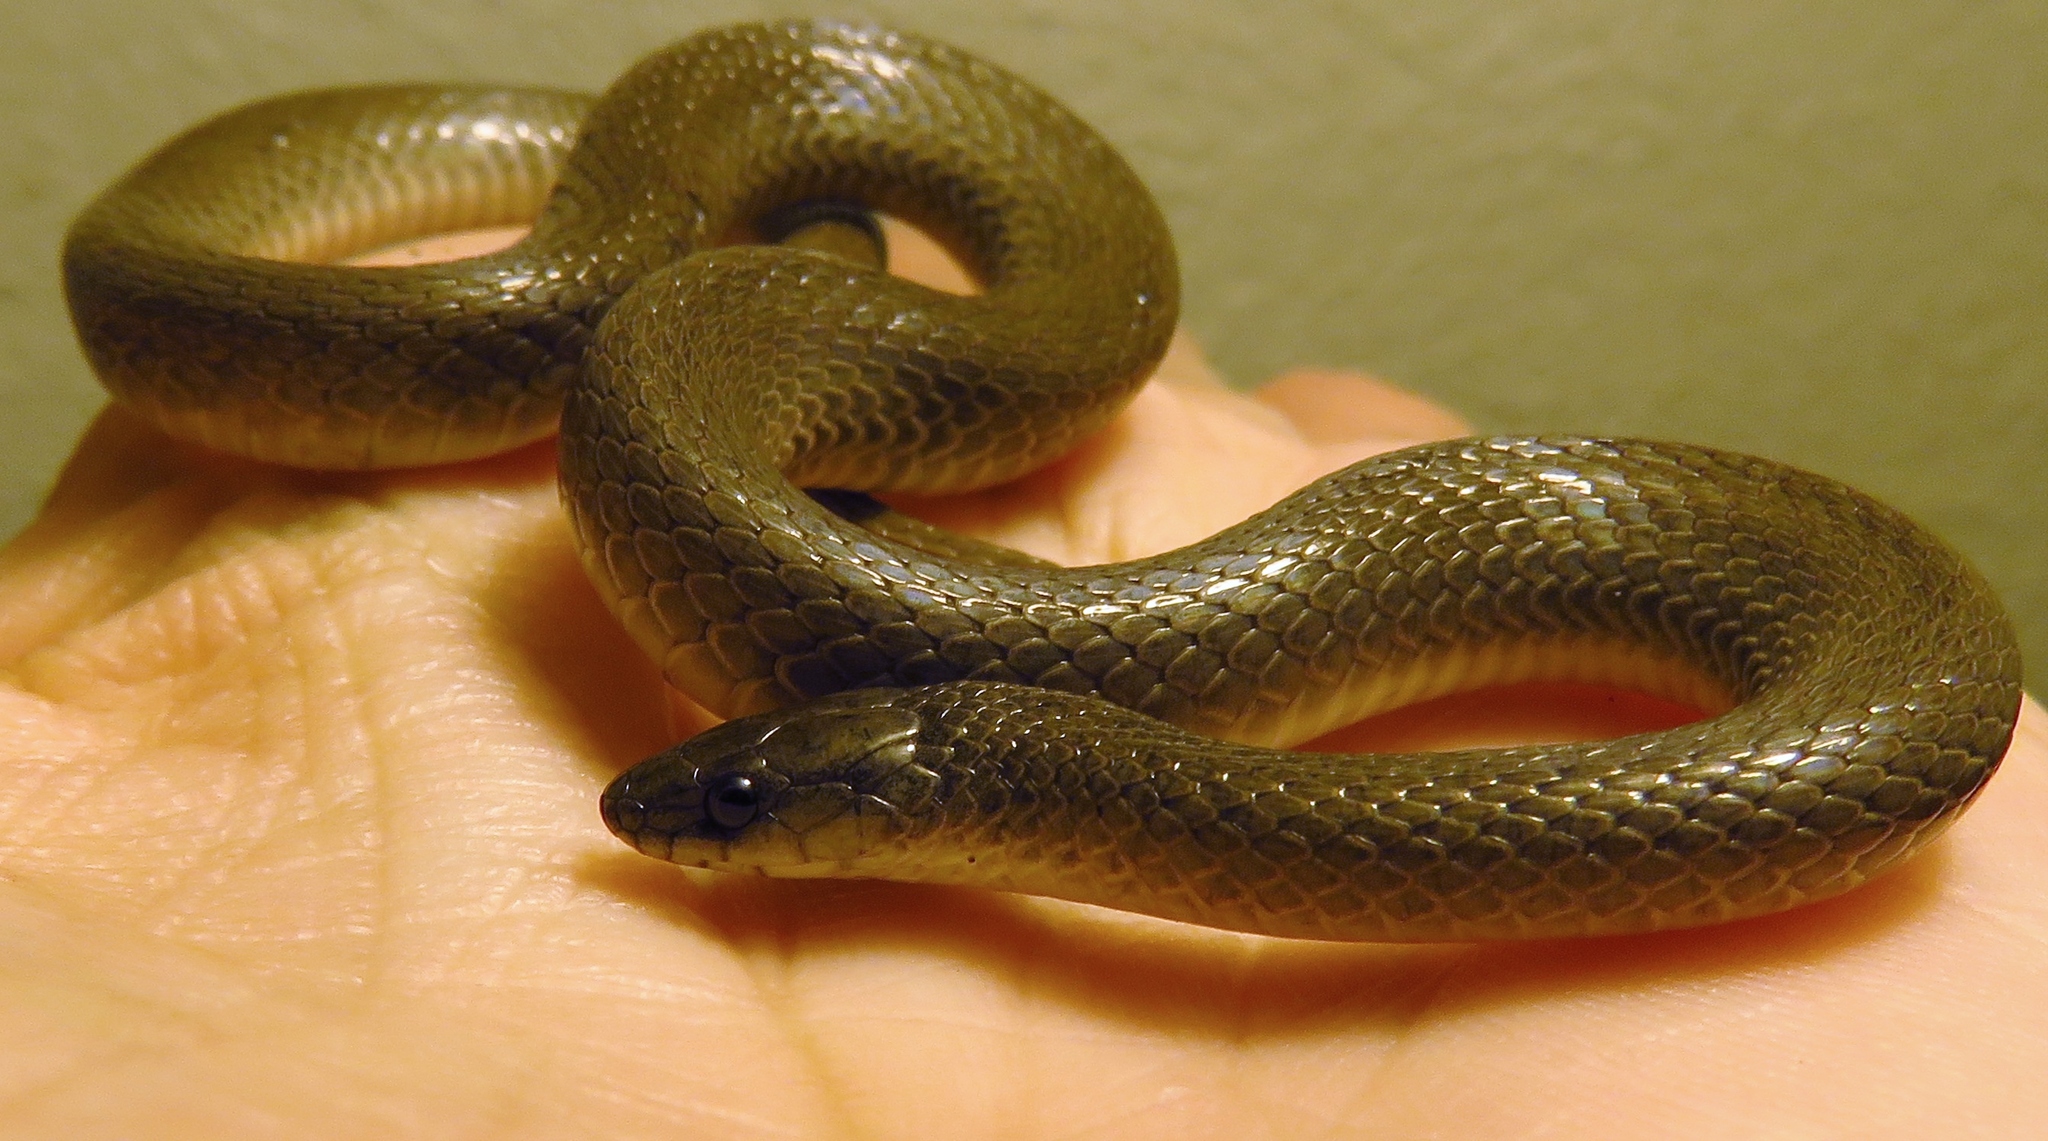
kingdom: Animalia
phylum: Chordata
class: Squamata
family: Colubridae
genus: Haldea
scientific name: Haldea striatula
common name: Rough earth snake
